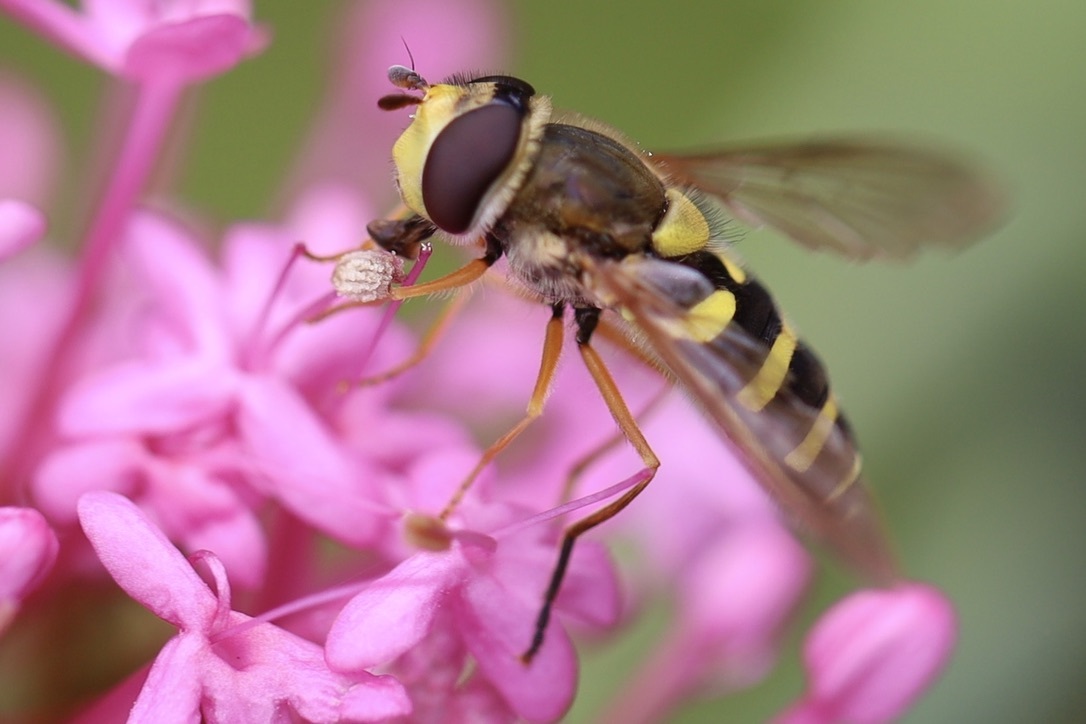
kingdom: Animalia
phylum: Arthropoda
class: Insecta
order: Diptera
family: Syrphidae
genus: Syrphus
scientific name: Syrphus opinator
